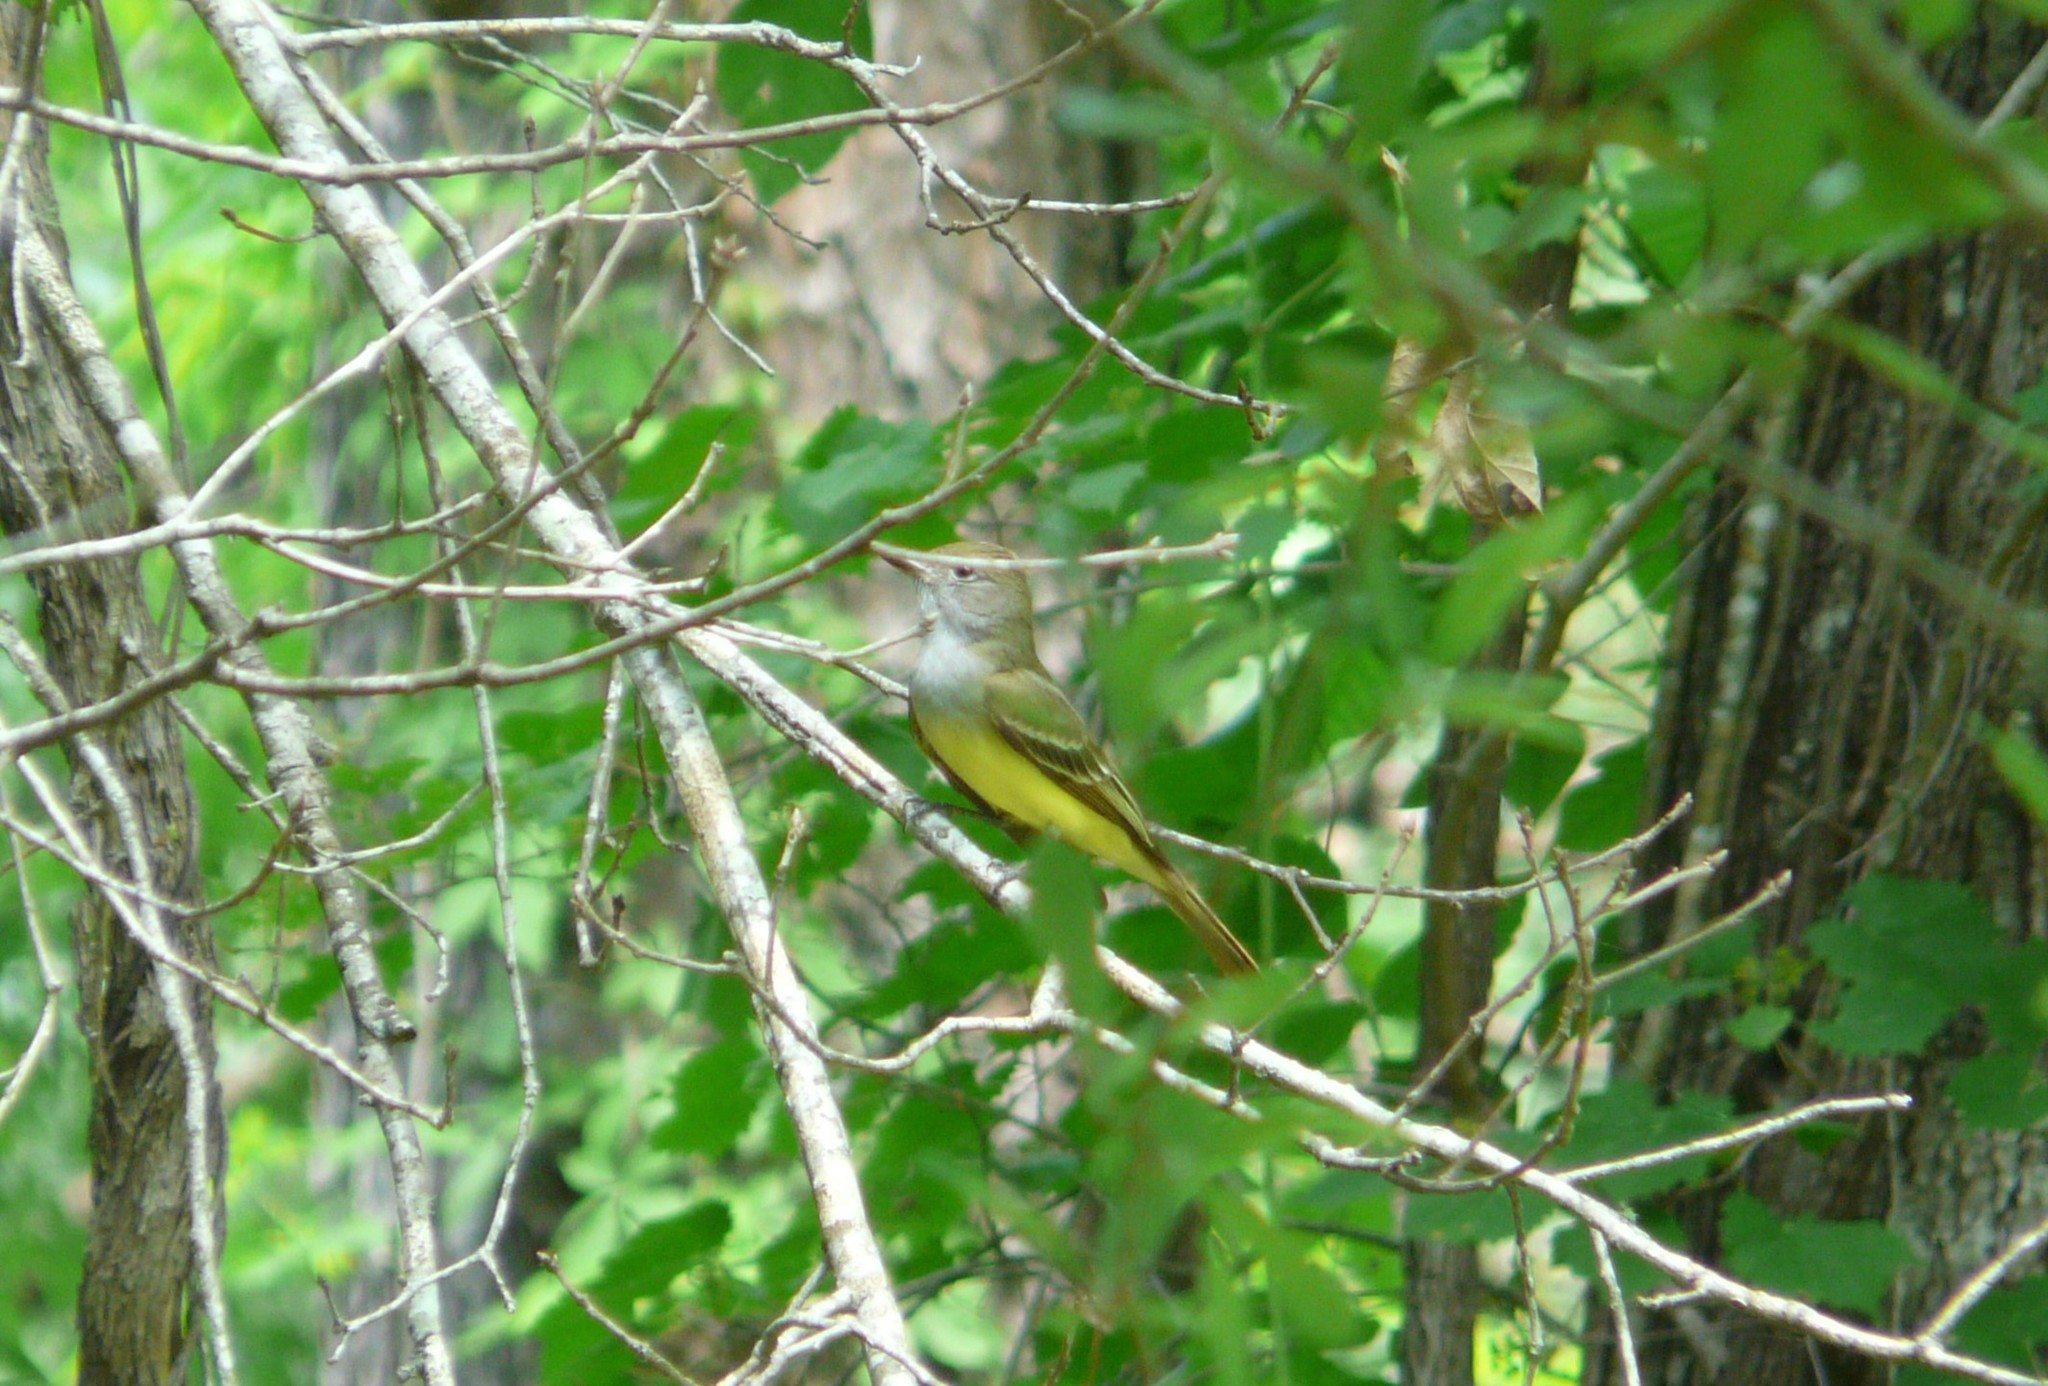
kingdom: Animalia
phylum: Chordata
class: Aves
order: Passeriformes
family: Tyrannidae
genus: Myiarchus
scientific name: Myiarchus crinitus
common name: Great crested flycatcher
